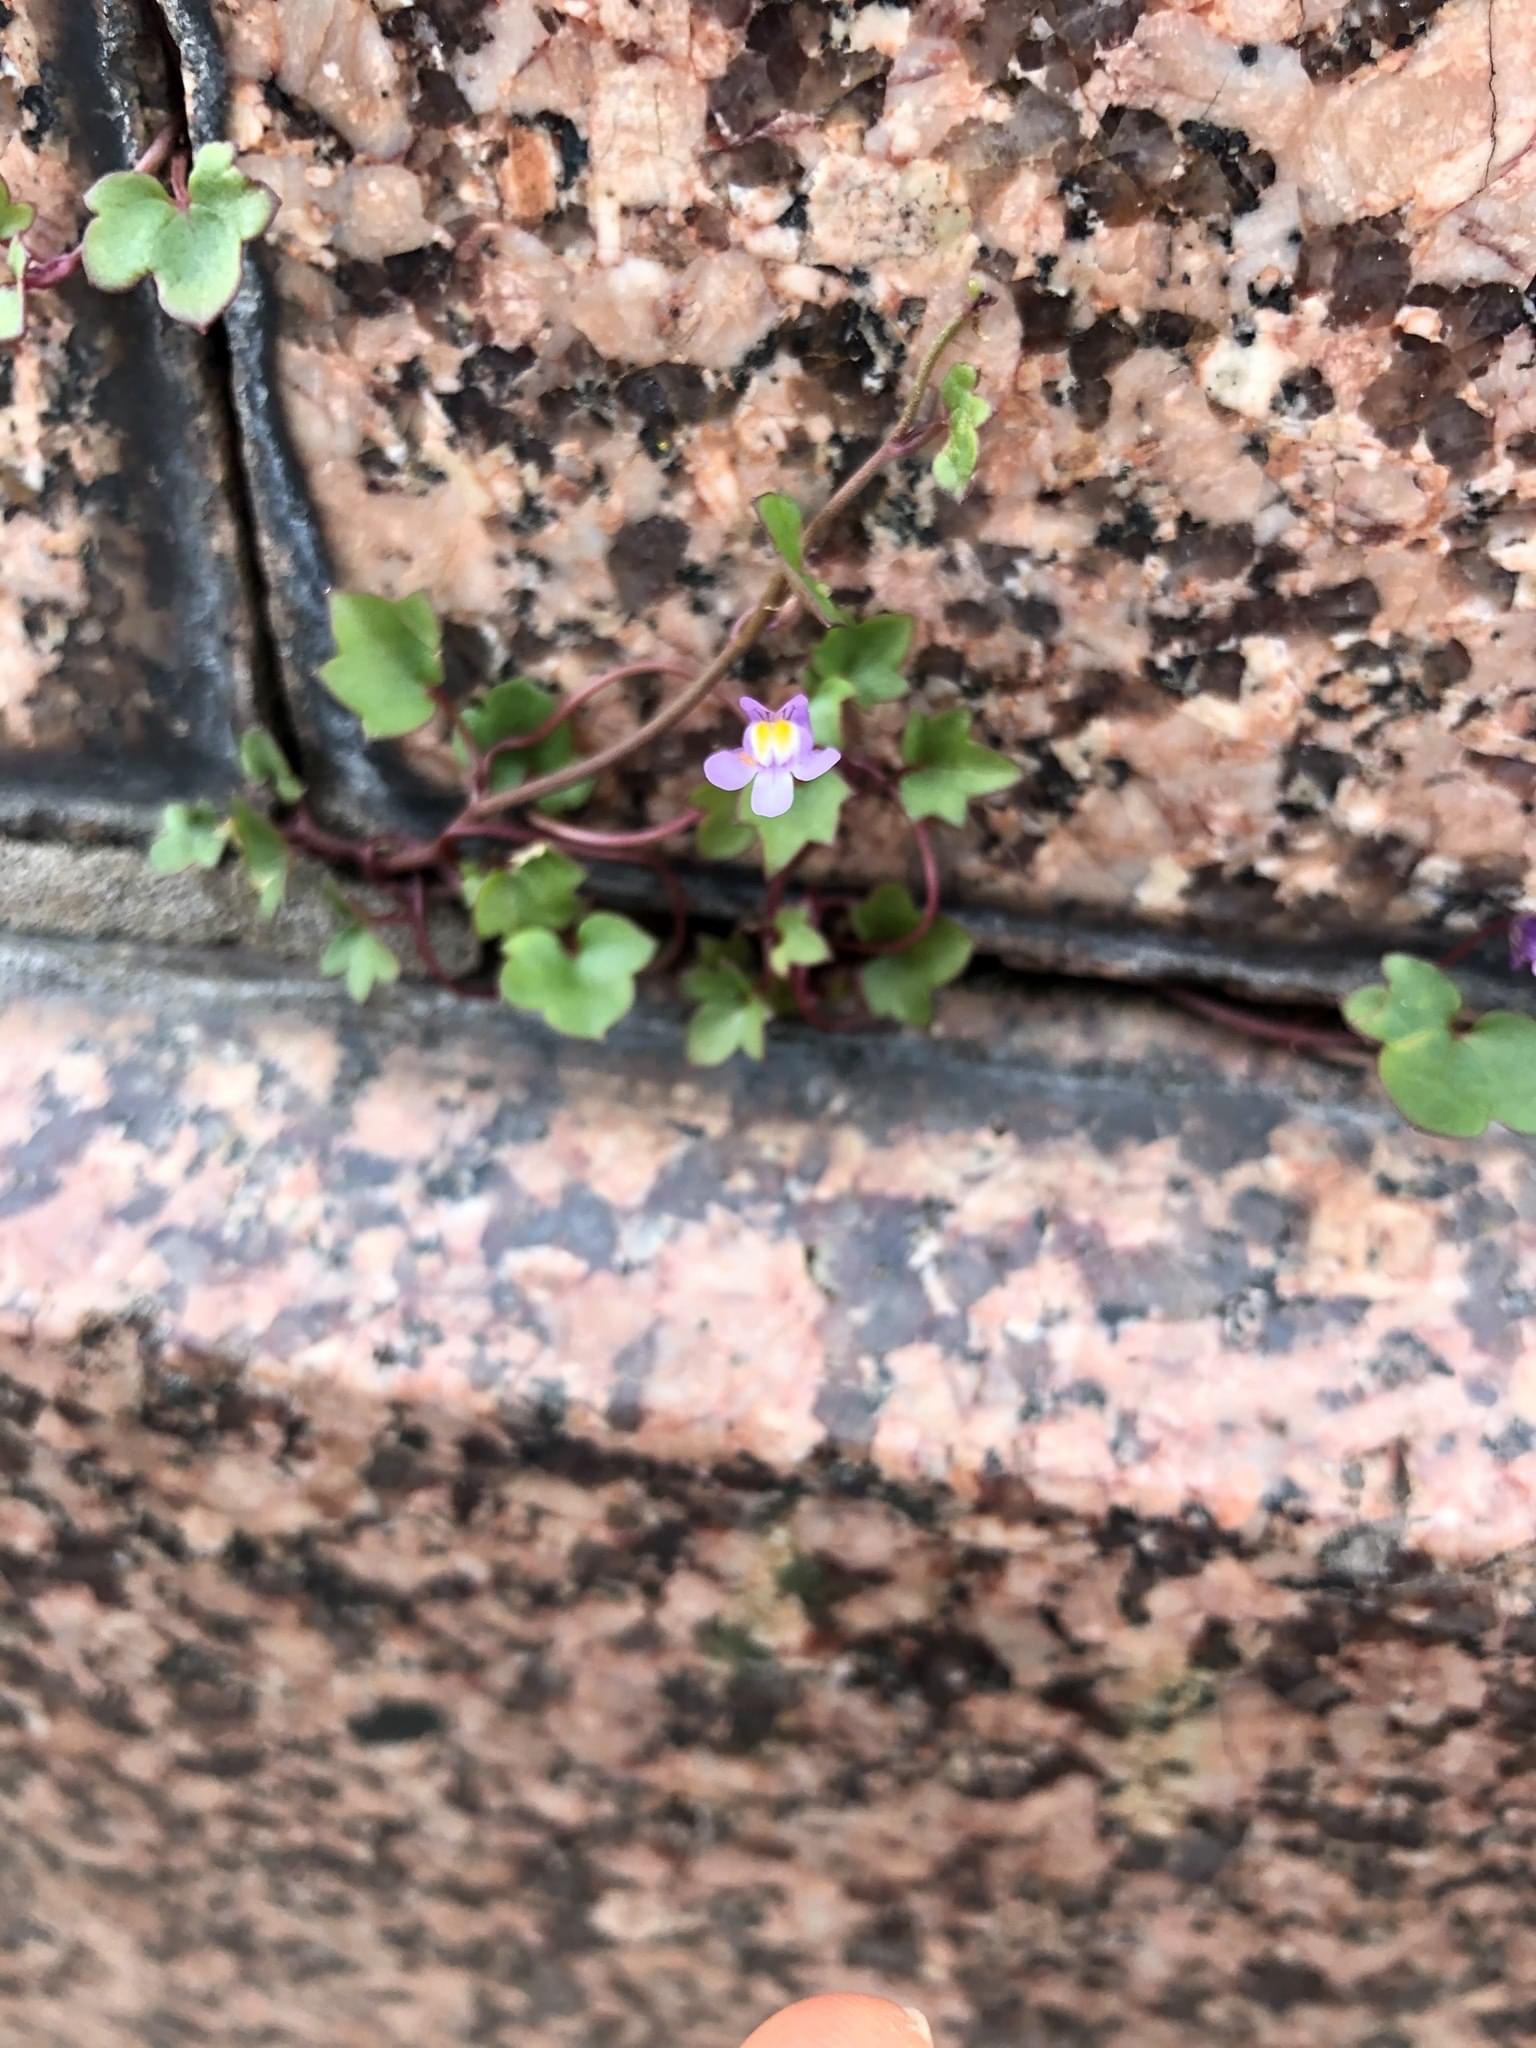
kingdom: Plantae
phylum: Tracheophyta
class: Magnoliopsida
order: Lamiales
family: Plantaginaceae
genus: Cymbalaria
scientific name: Cymbalaria muralis
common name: Ivy-leaved toadflax
